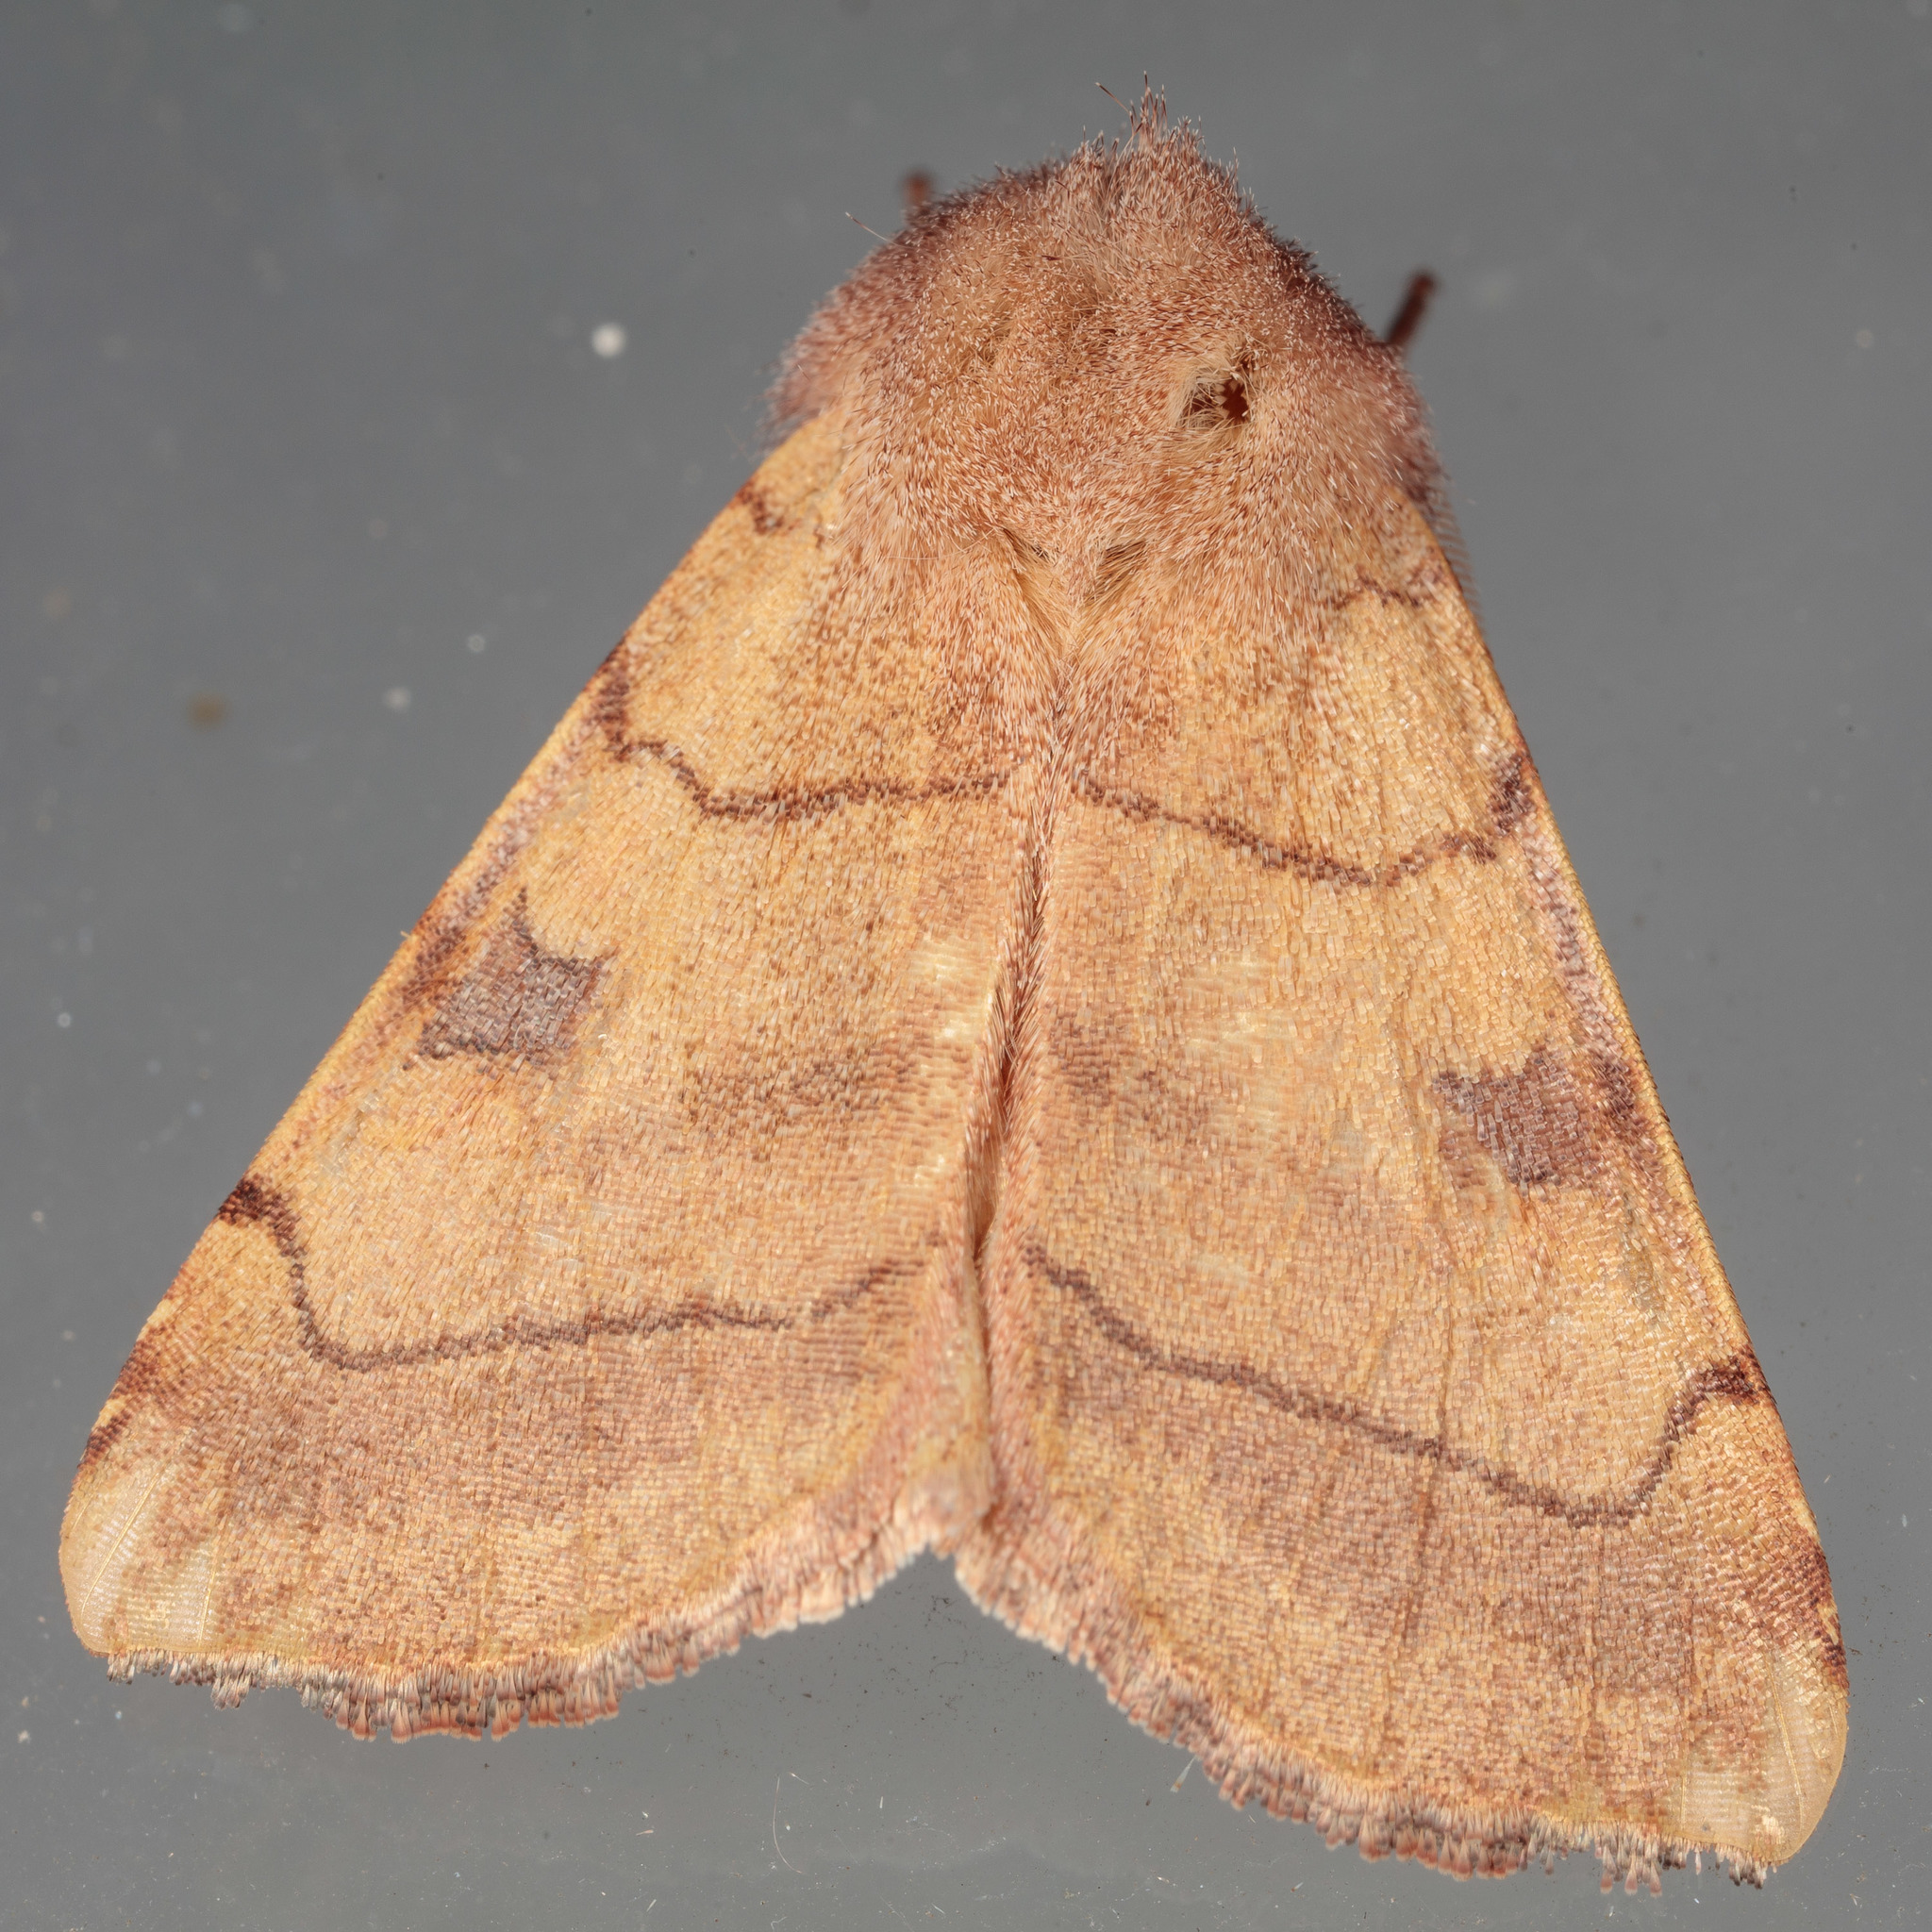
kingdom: Animalia
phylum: Arthropoda
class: Insecta
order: Lepidoptera
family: Noctuidae
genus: Choephora
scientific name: Choephora fungorum
